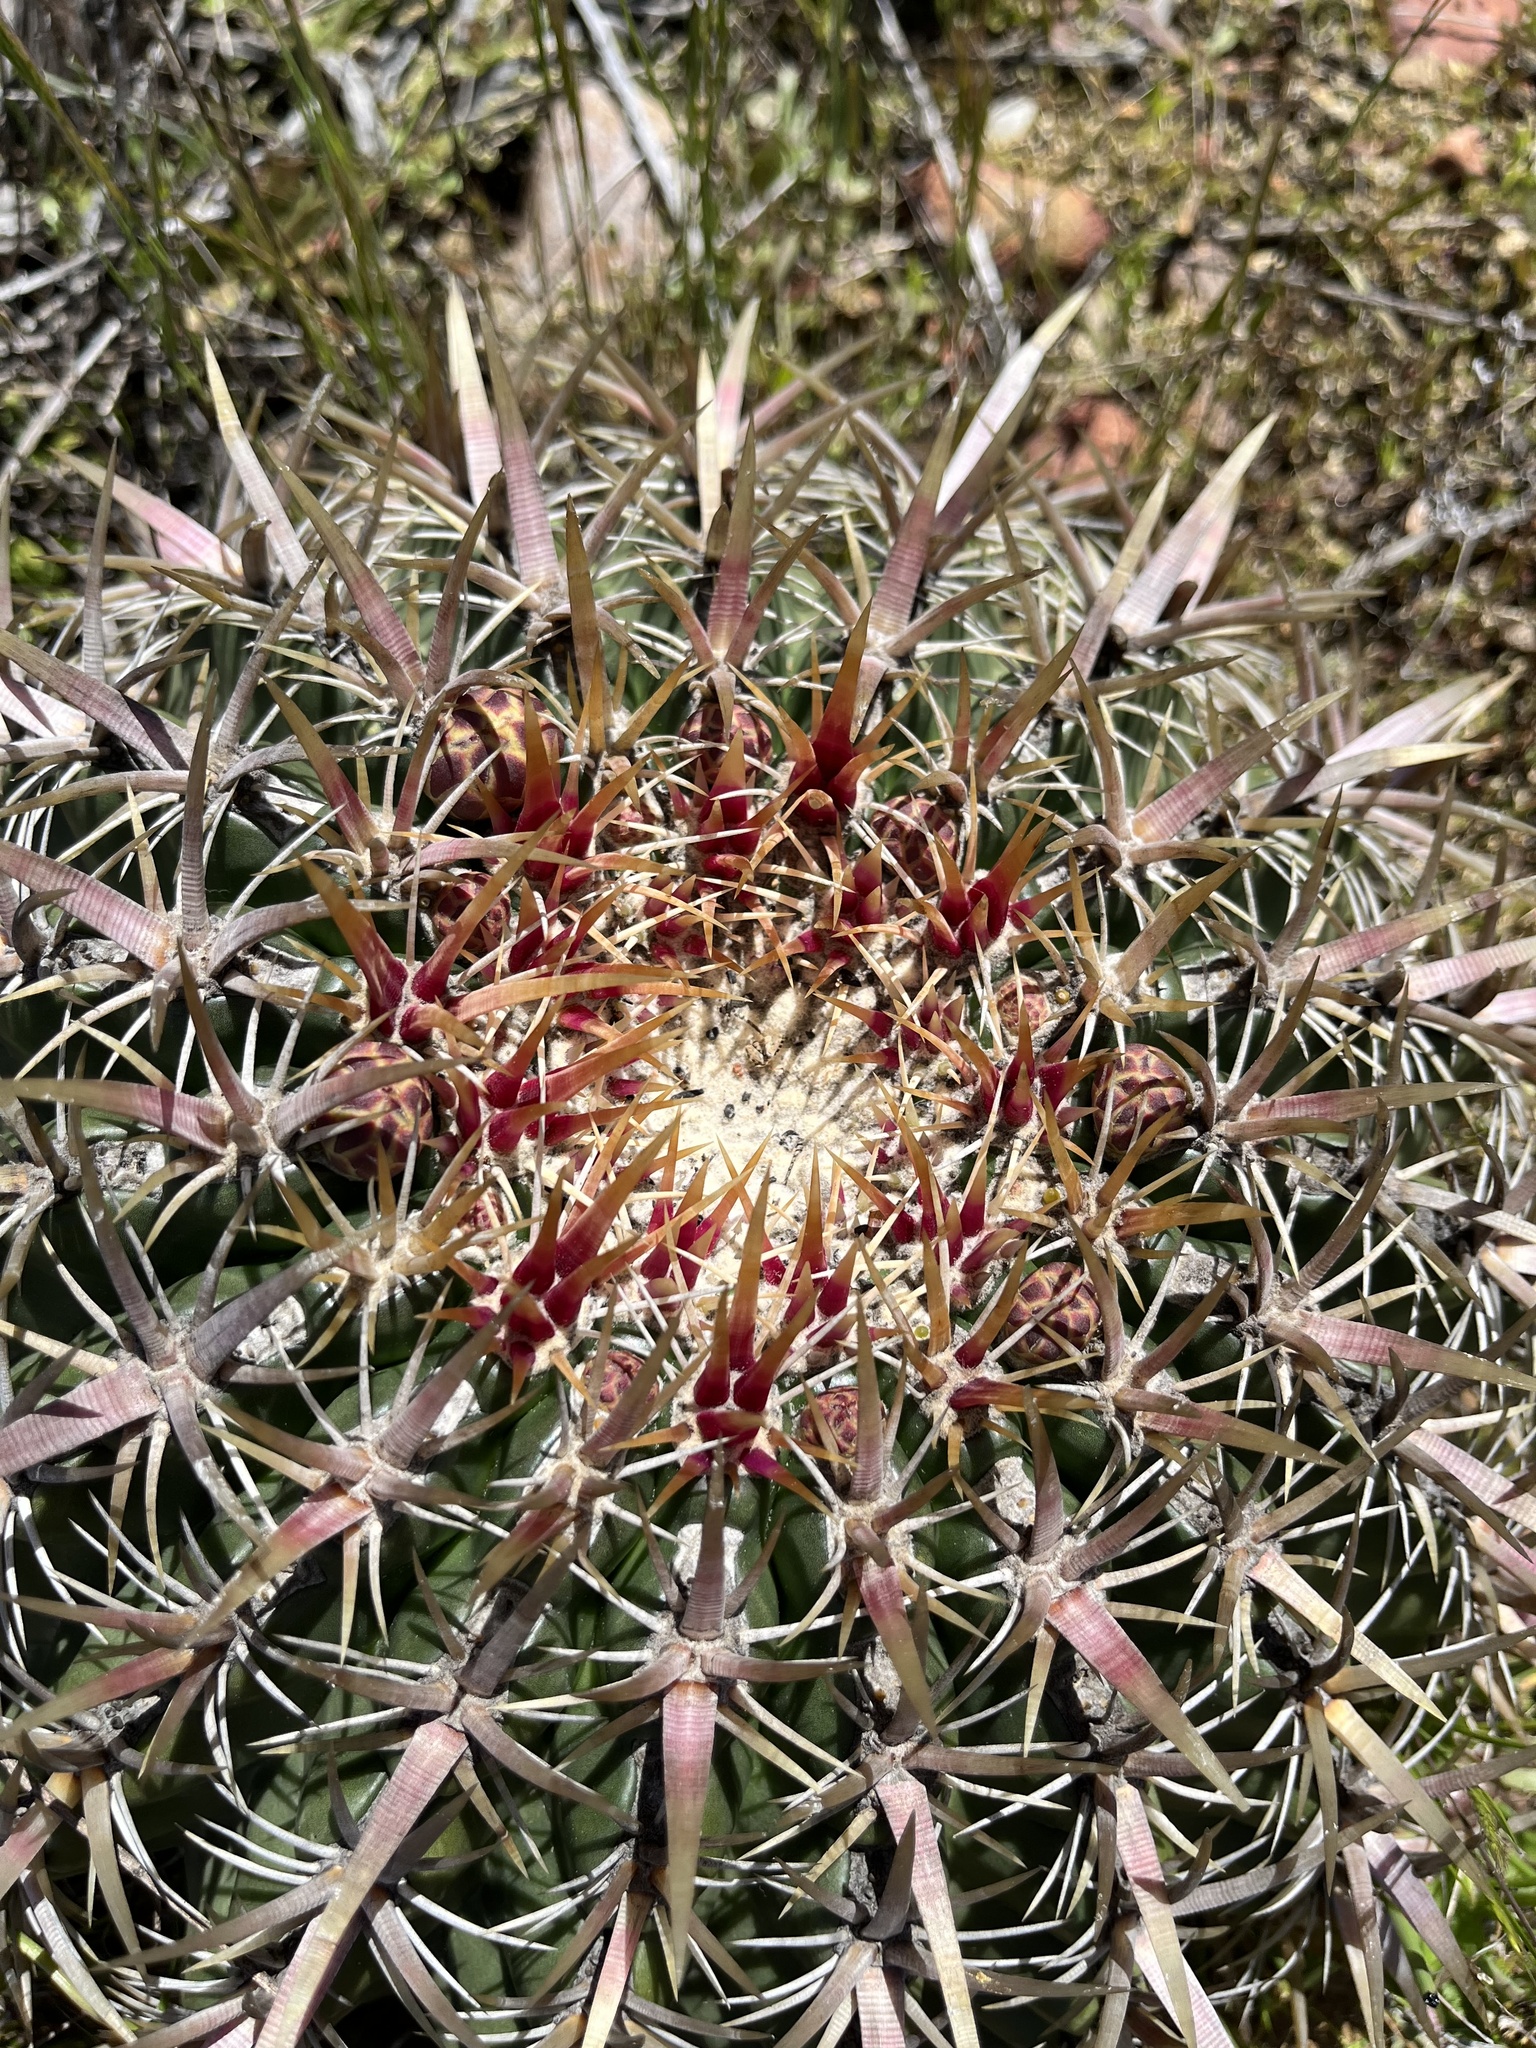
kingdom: Plantae
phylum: Tracheophyta
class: Magnoliopsida
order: Caryophyllales
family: Cactaceae
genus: Ferocactus
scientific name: Ferocactus viridescens
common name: San diego barrel cactus
